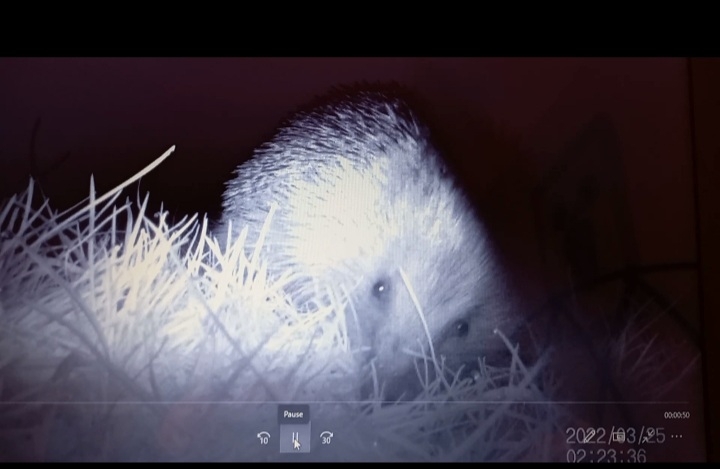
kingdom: Animalia
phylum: Chordata
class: Mammalia
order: Erinaceomorpha
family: Erinaceidae
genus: Erinaceus
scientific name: Erinaceus europaeus
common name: West european hedgehog
